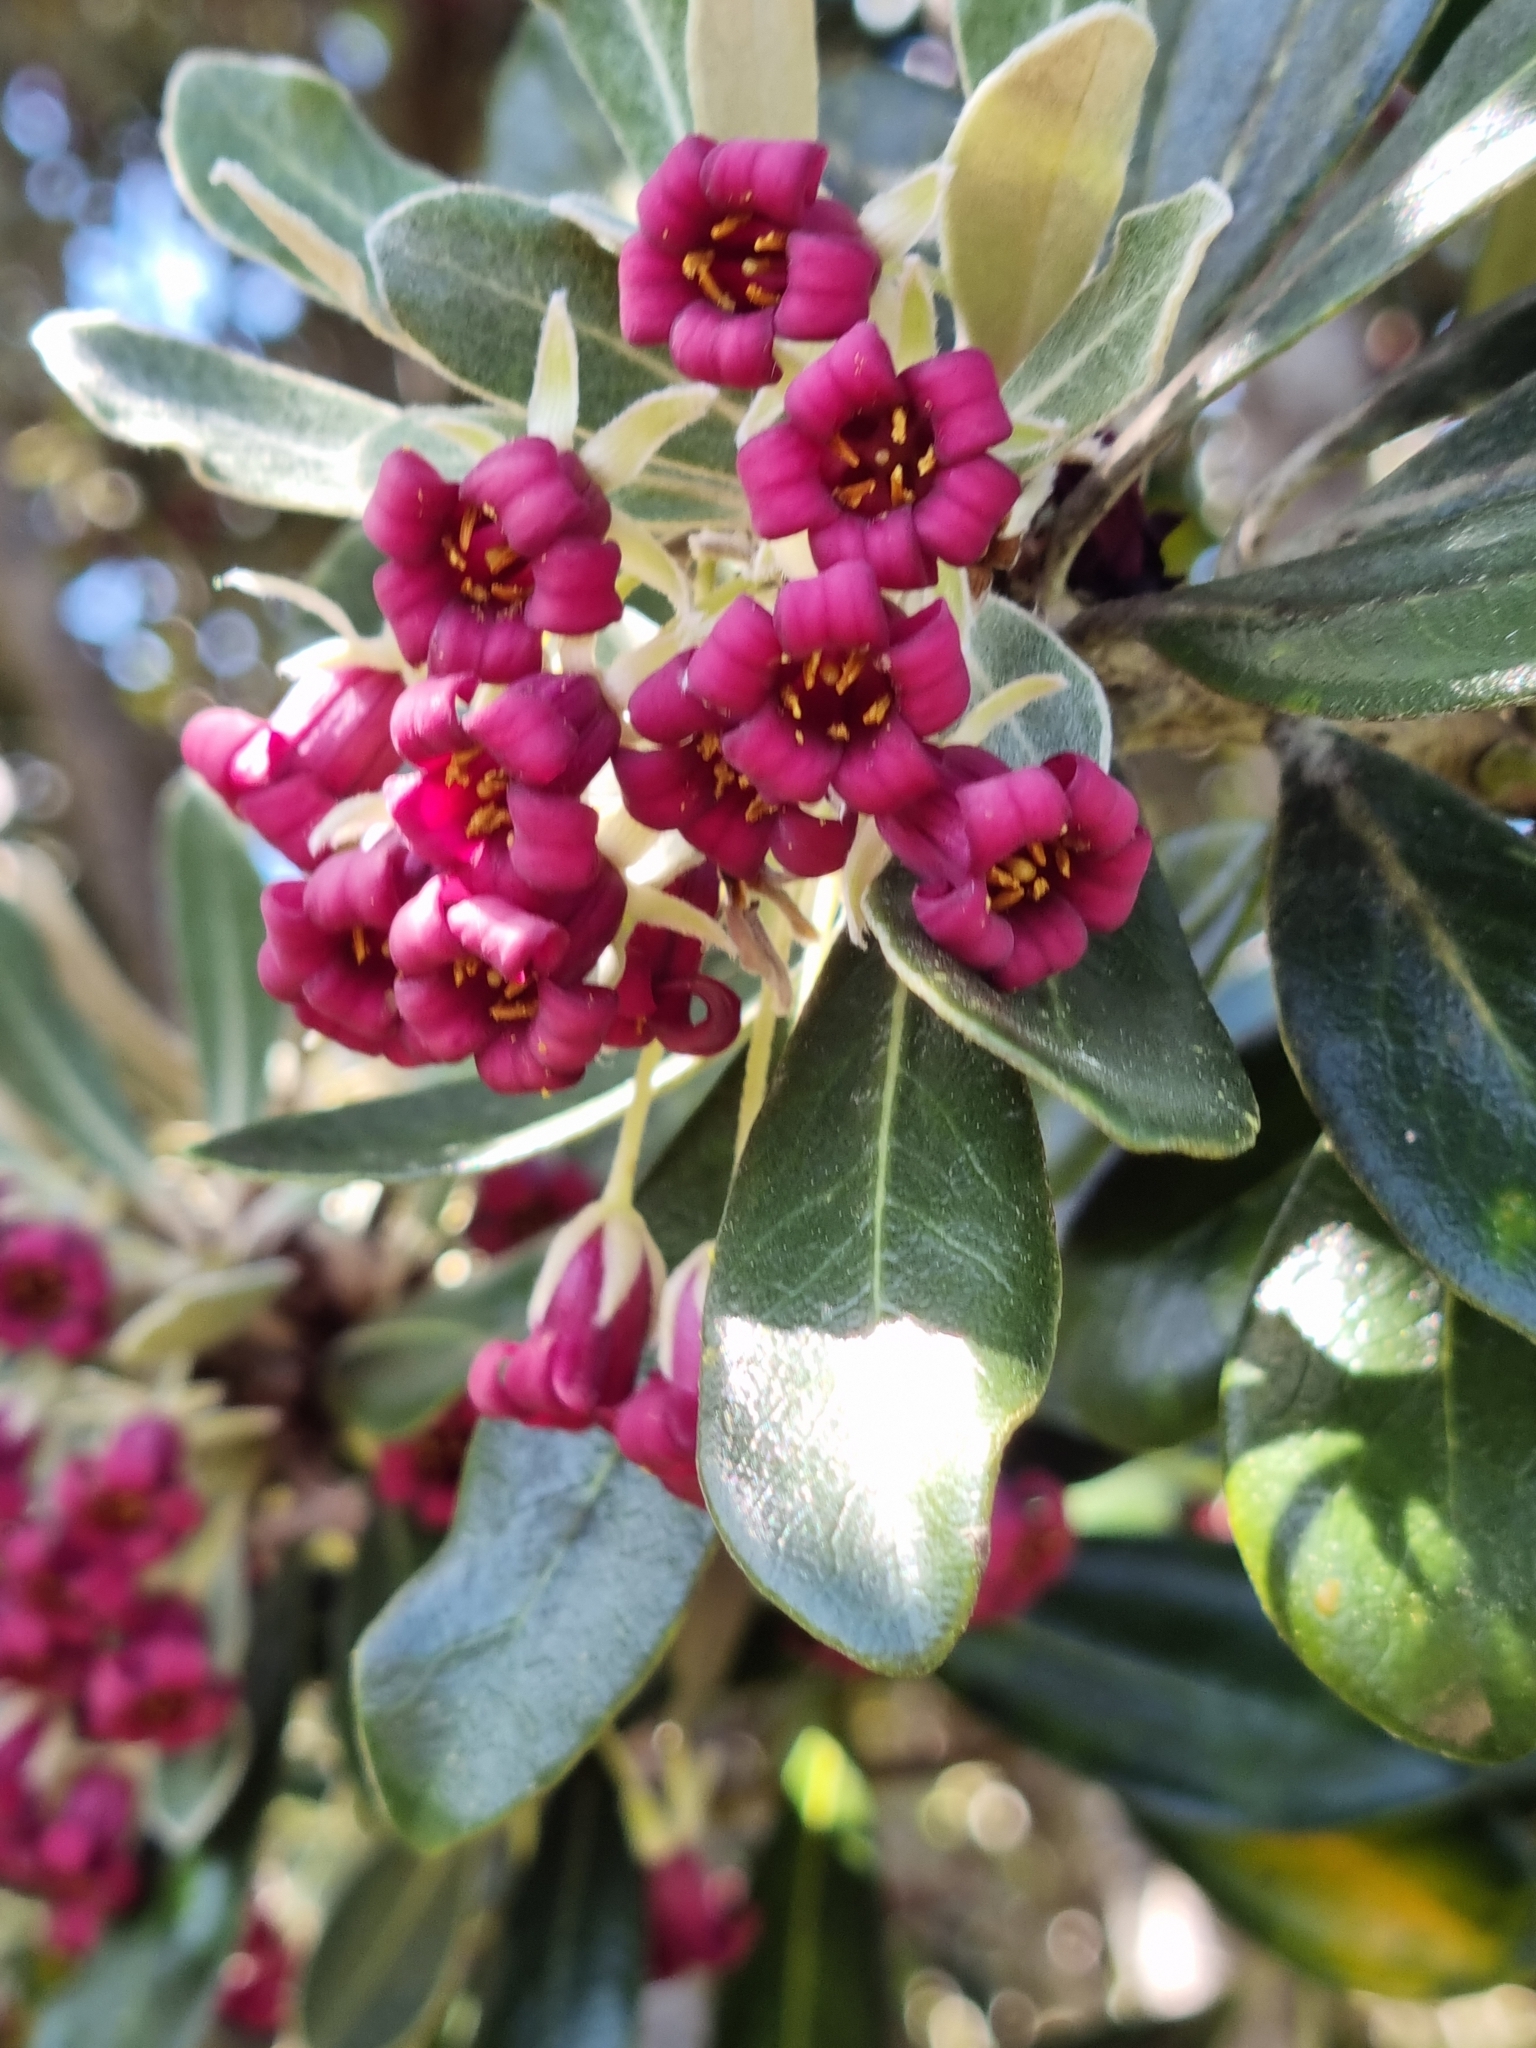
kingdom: Plantae
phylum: Tracheophyta
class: Magnoliopsida
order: Apiales
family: Pittosporaceae
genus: Pittosporum
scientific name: Pittosporum crassifolium
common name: Karo
